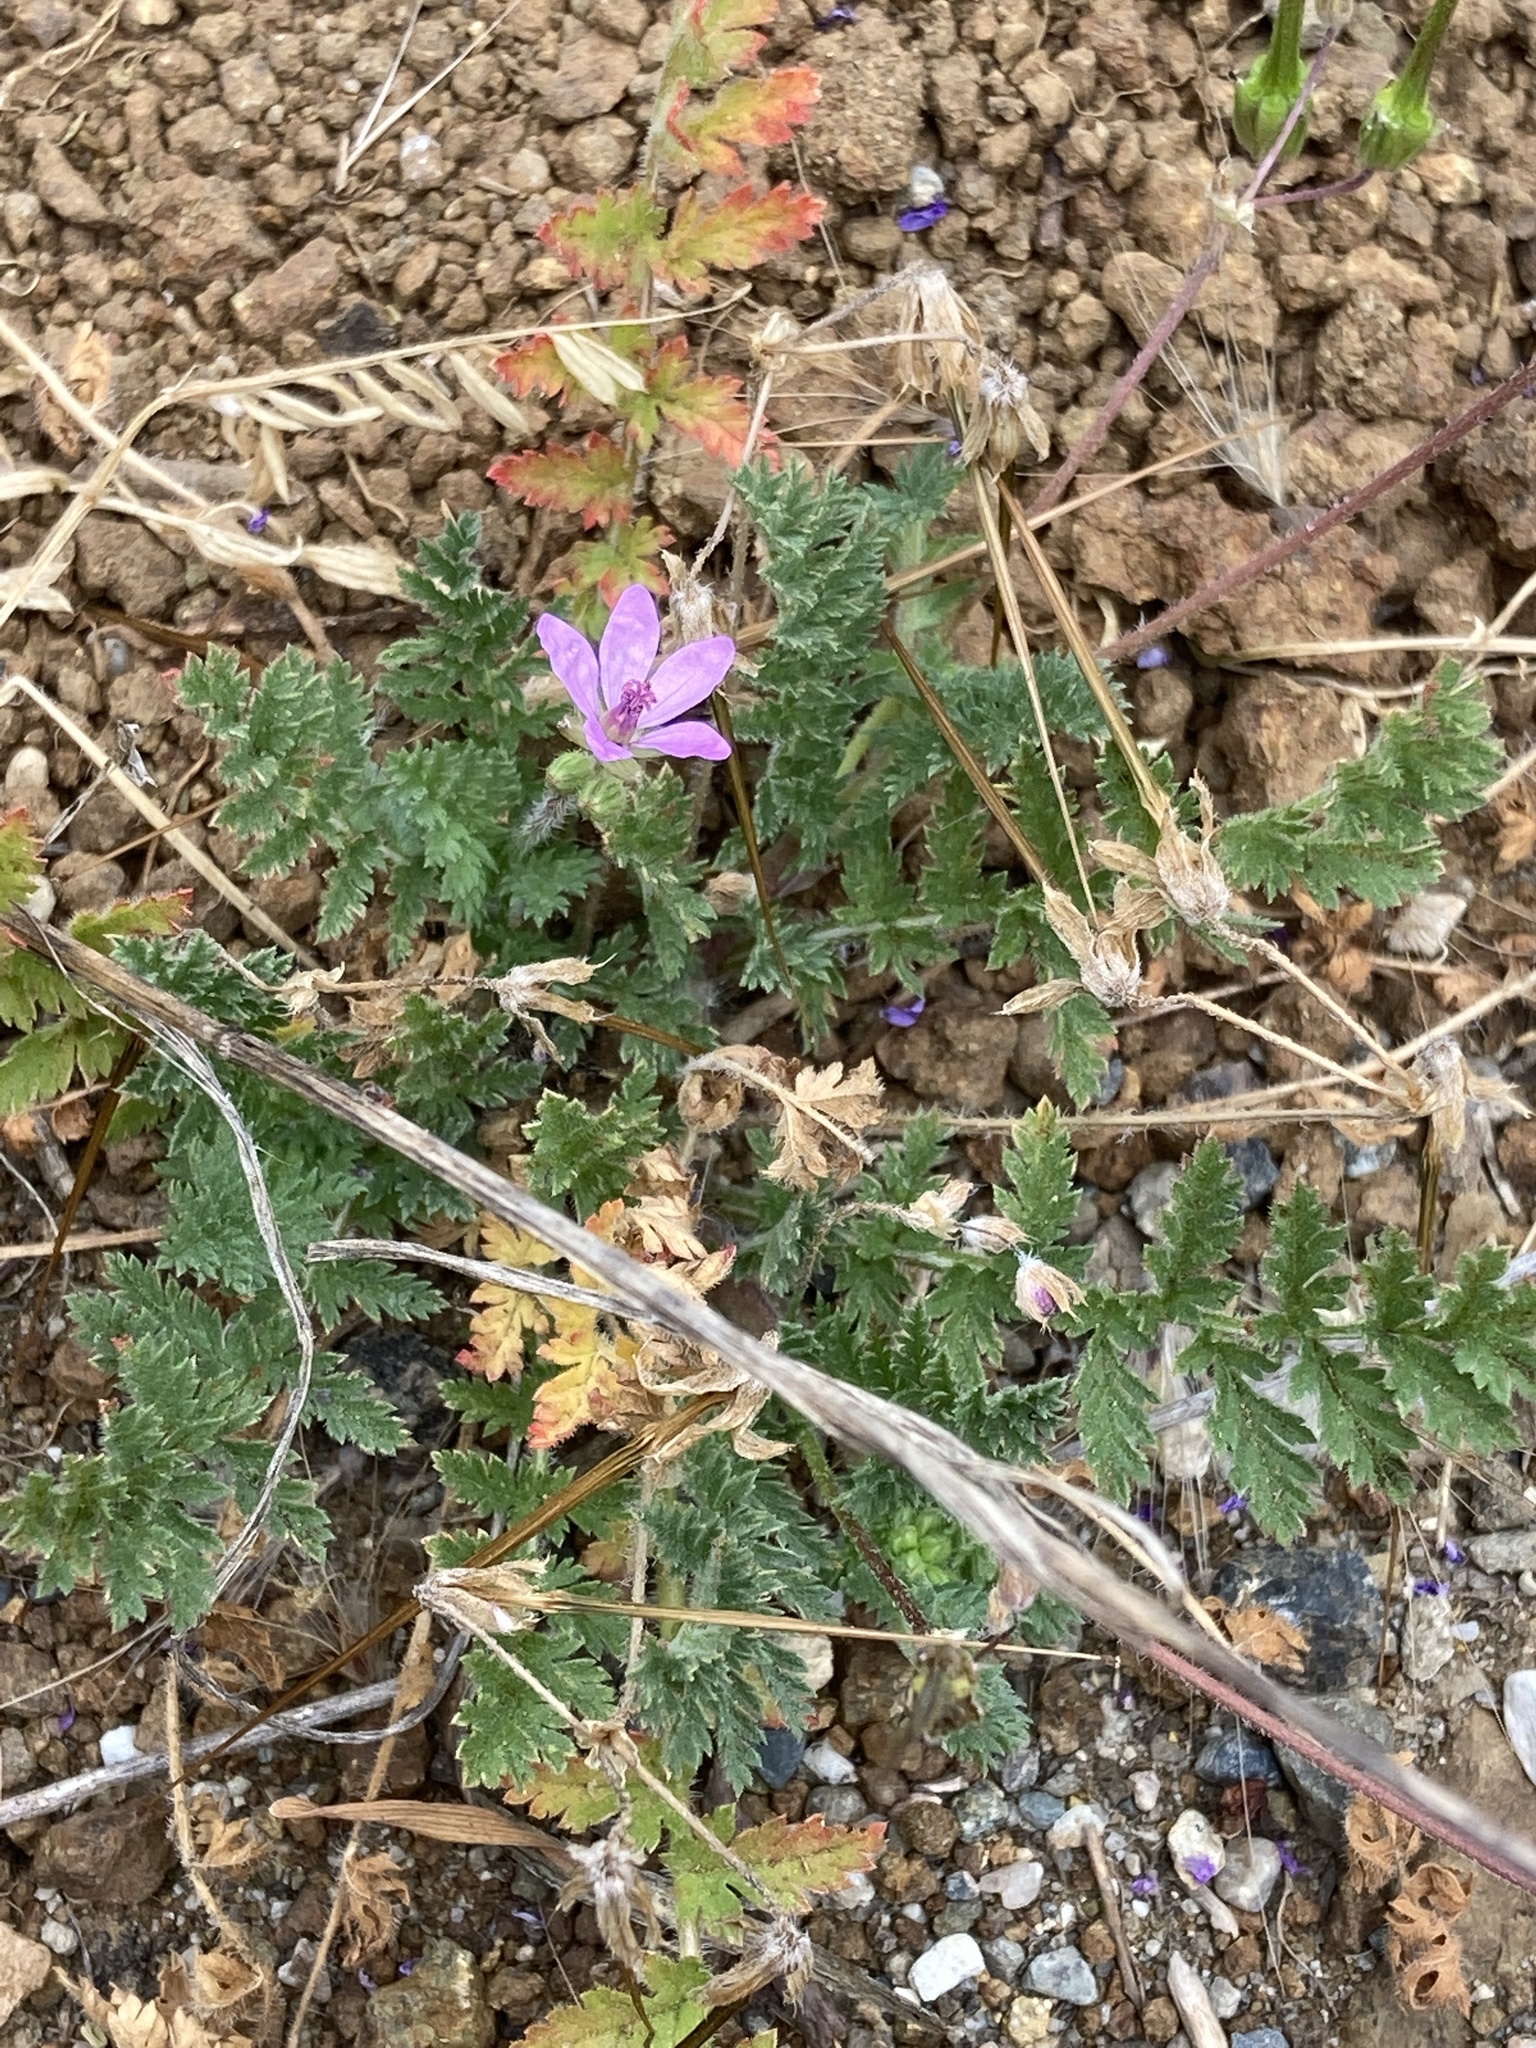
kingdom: Plantae
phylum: Tracheophyta
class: Magnoliopsida
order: Geraniales
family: Geraniaceae
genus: Erodium
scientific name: Erodium cicutarium
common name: Common stork's-bill
